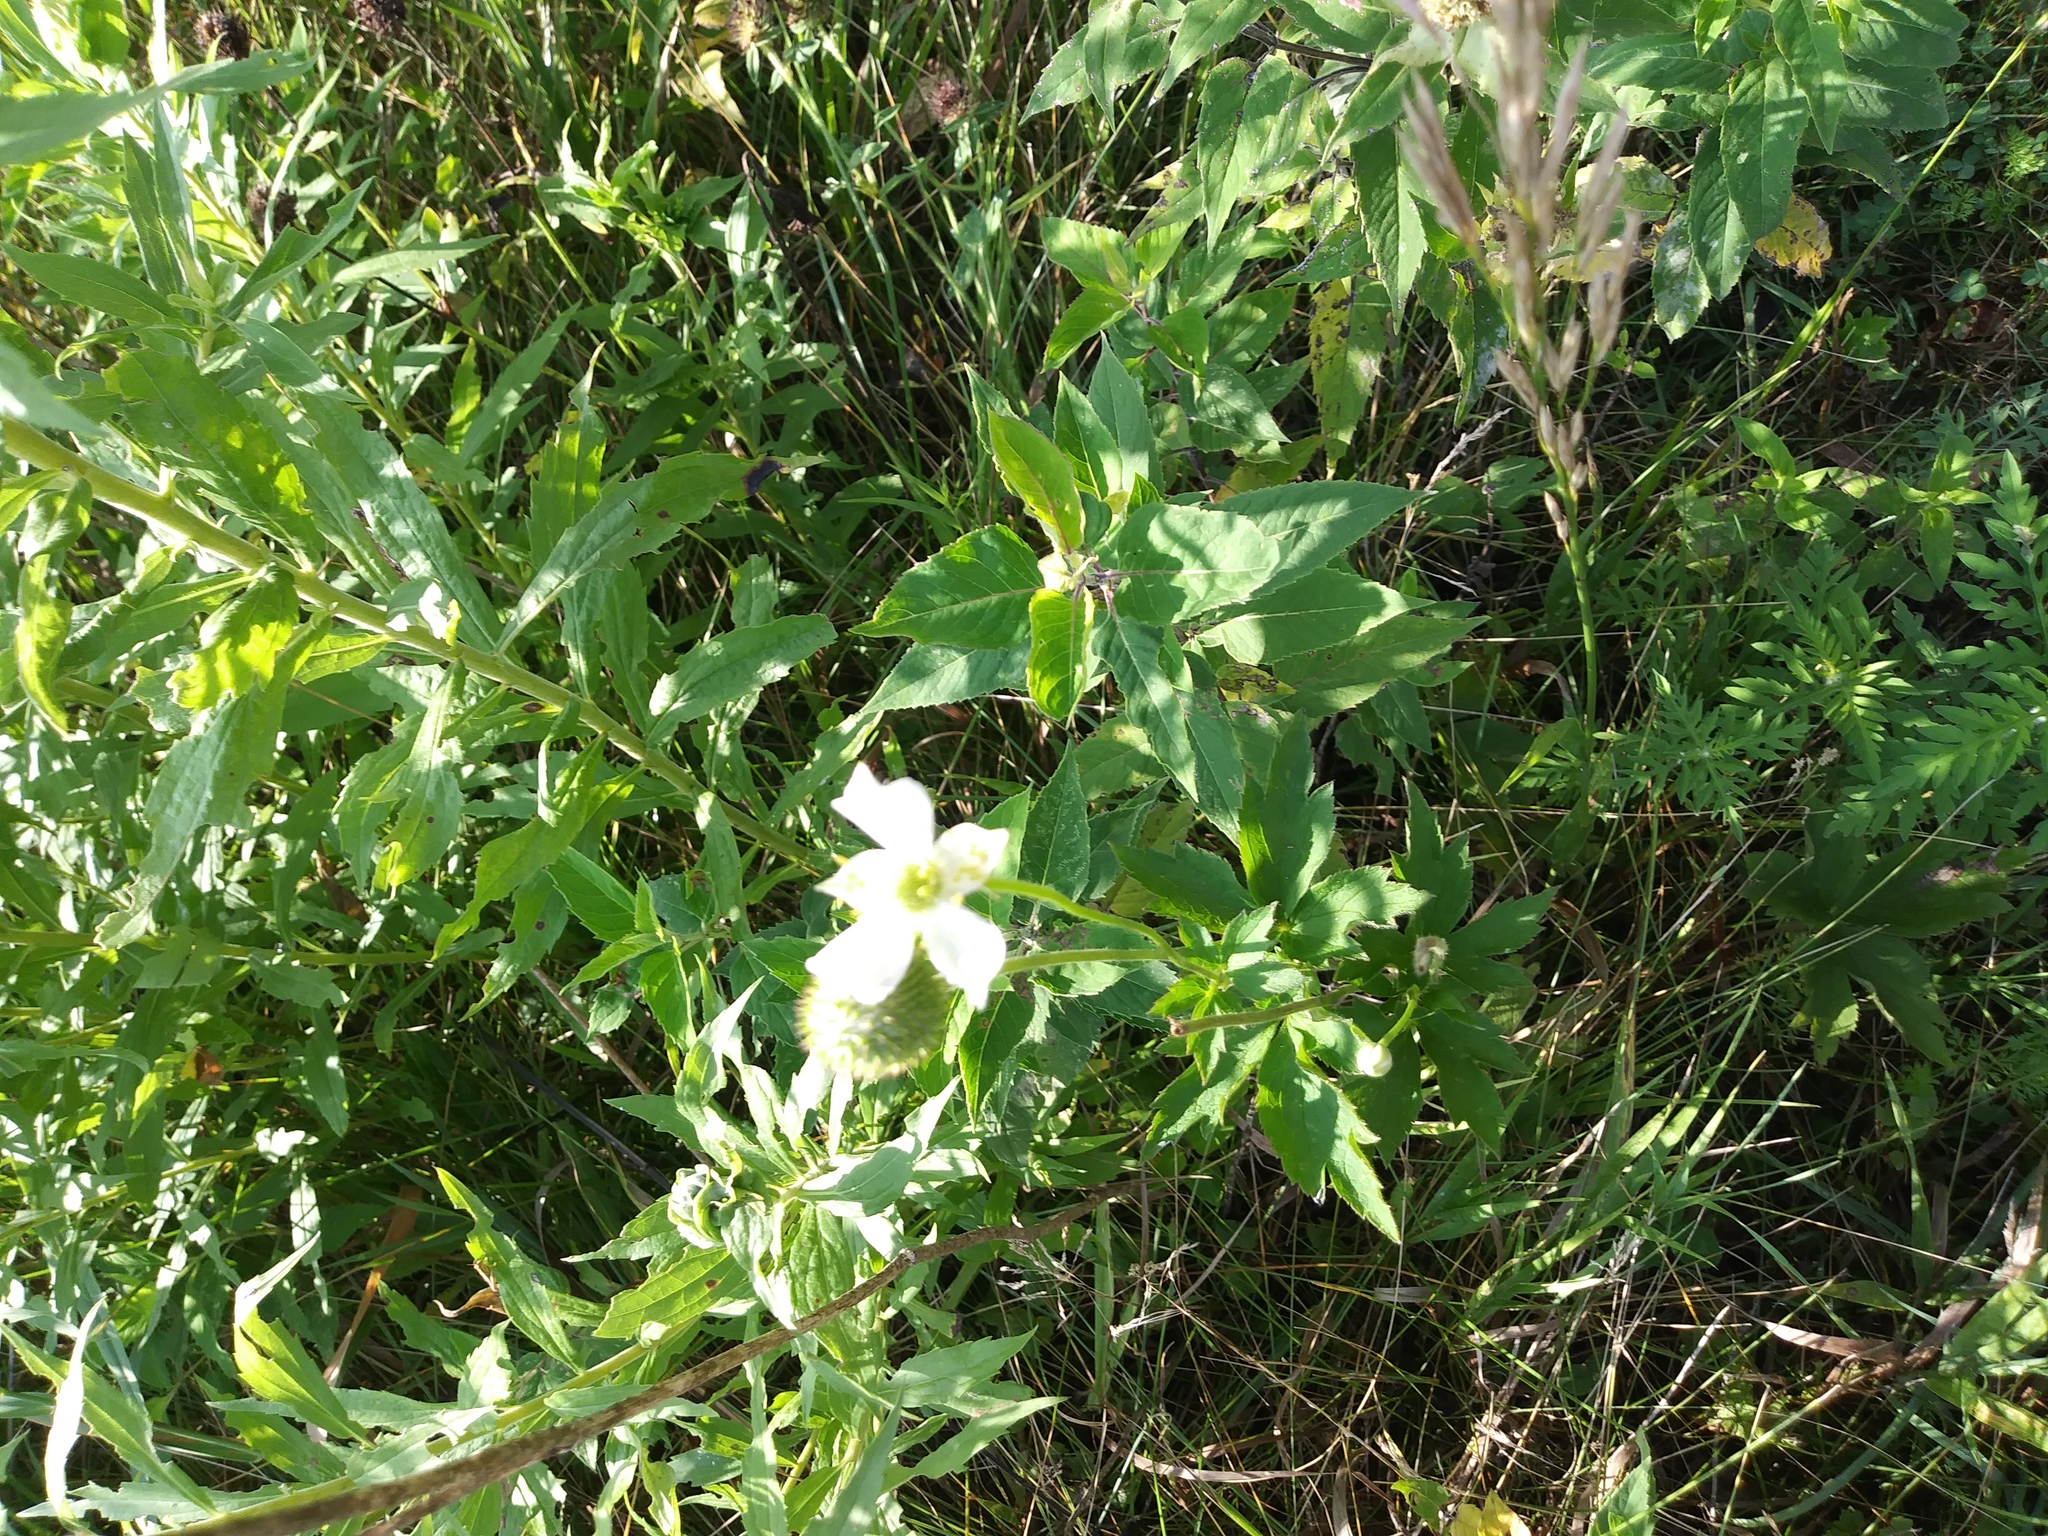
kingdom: Plantae
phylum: Tracheophyta
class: Magnoliopsida
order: Ranunculales
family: Ranunculaceae
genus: Anemone
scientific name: Anemone virginiana
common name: Tall anemone
